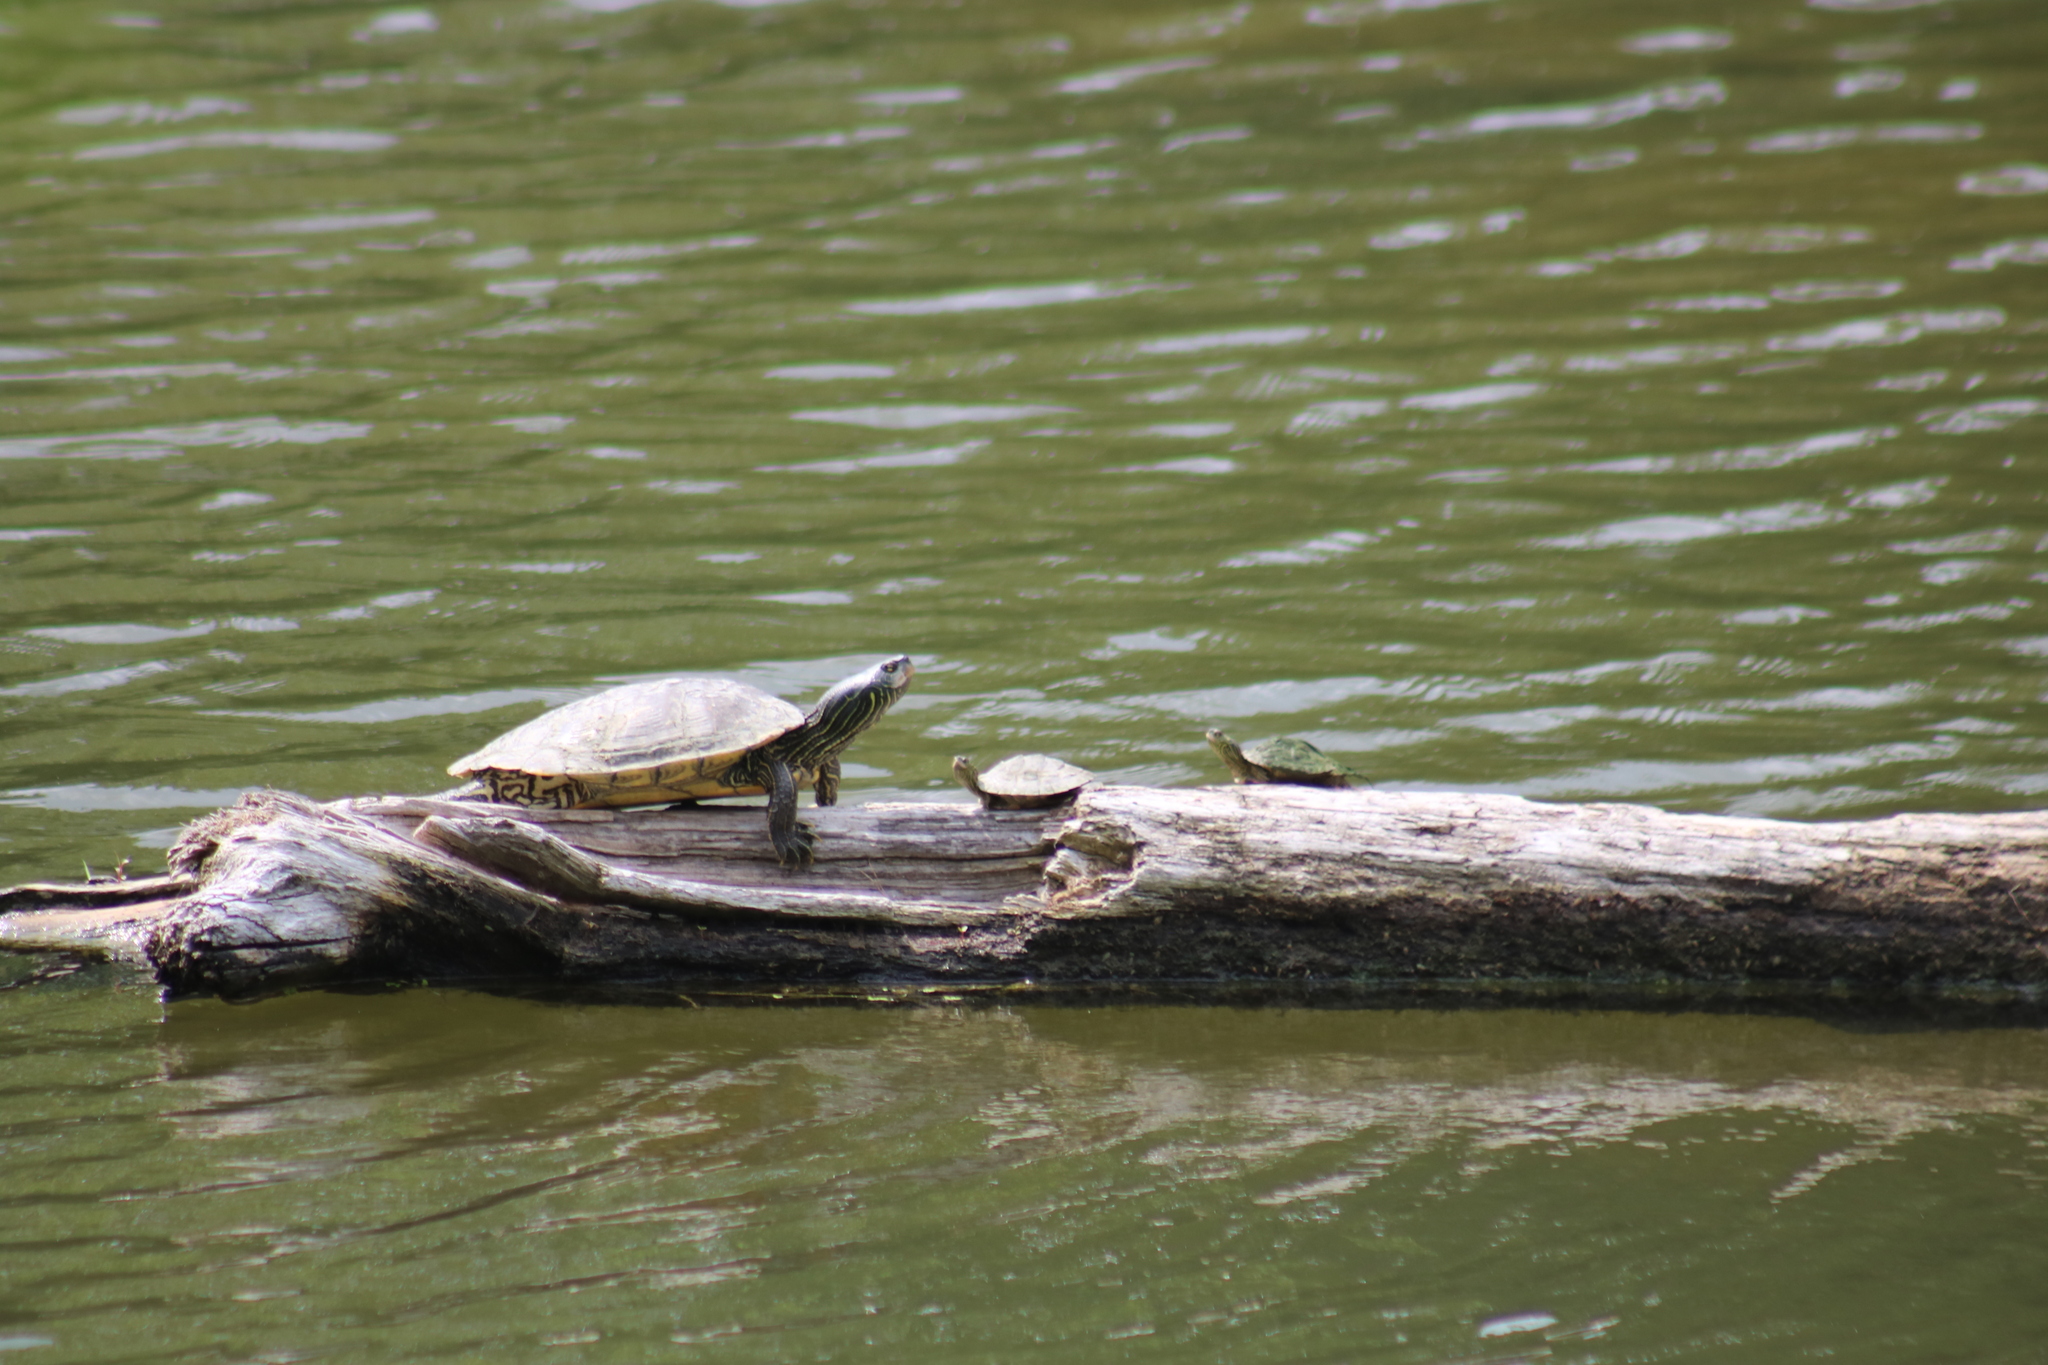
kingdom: Animalia
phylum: Chordata
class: Testudines
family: Emydidae
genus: Graptemys
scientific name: Graptemys geographica
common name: Common map turtle
